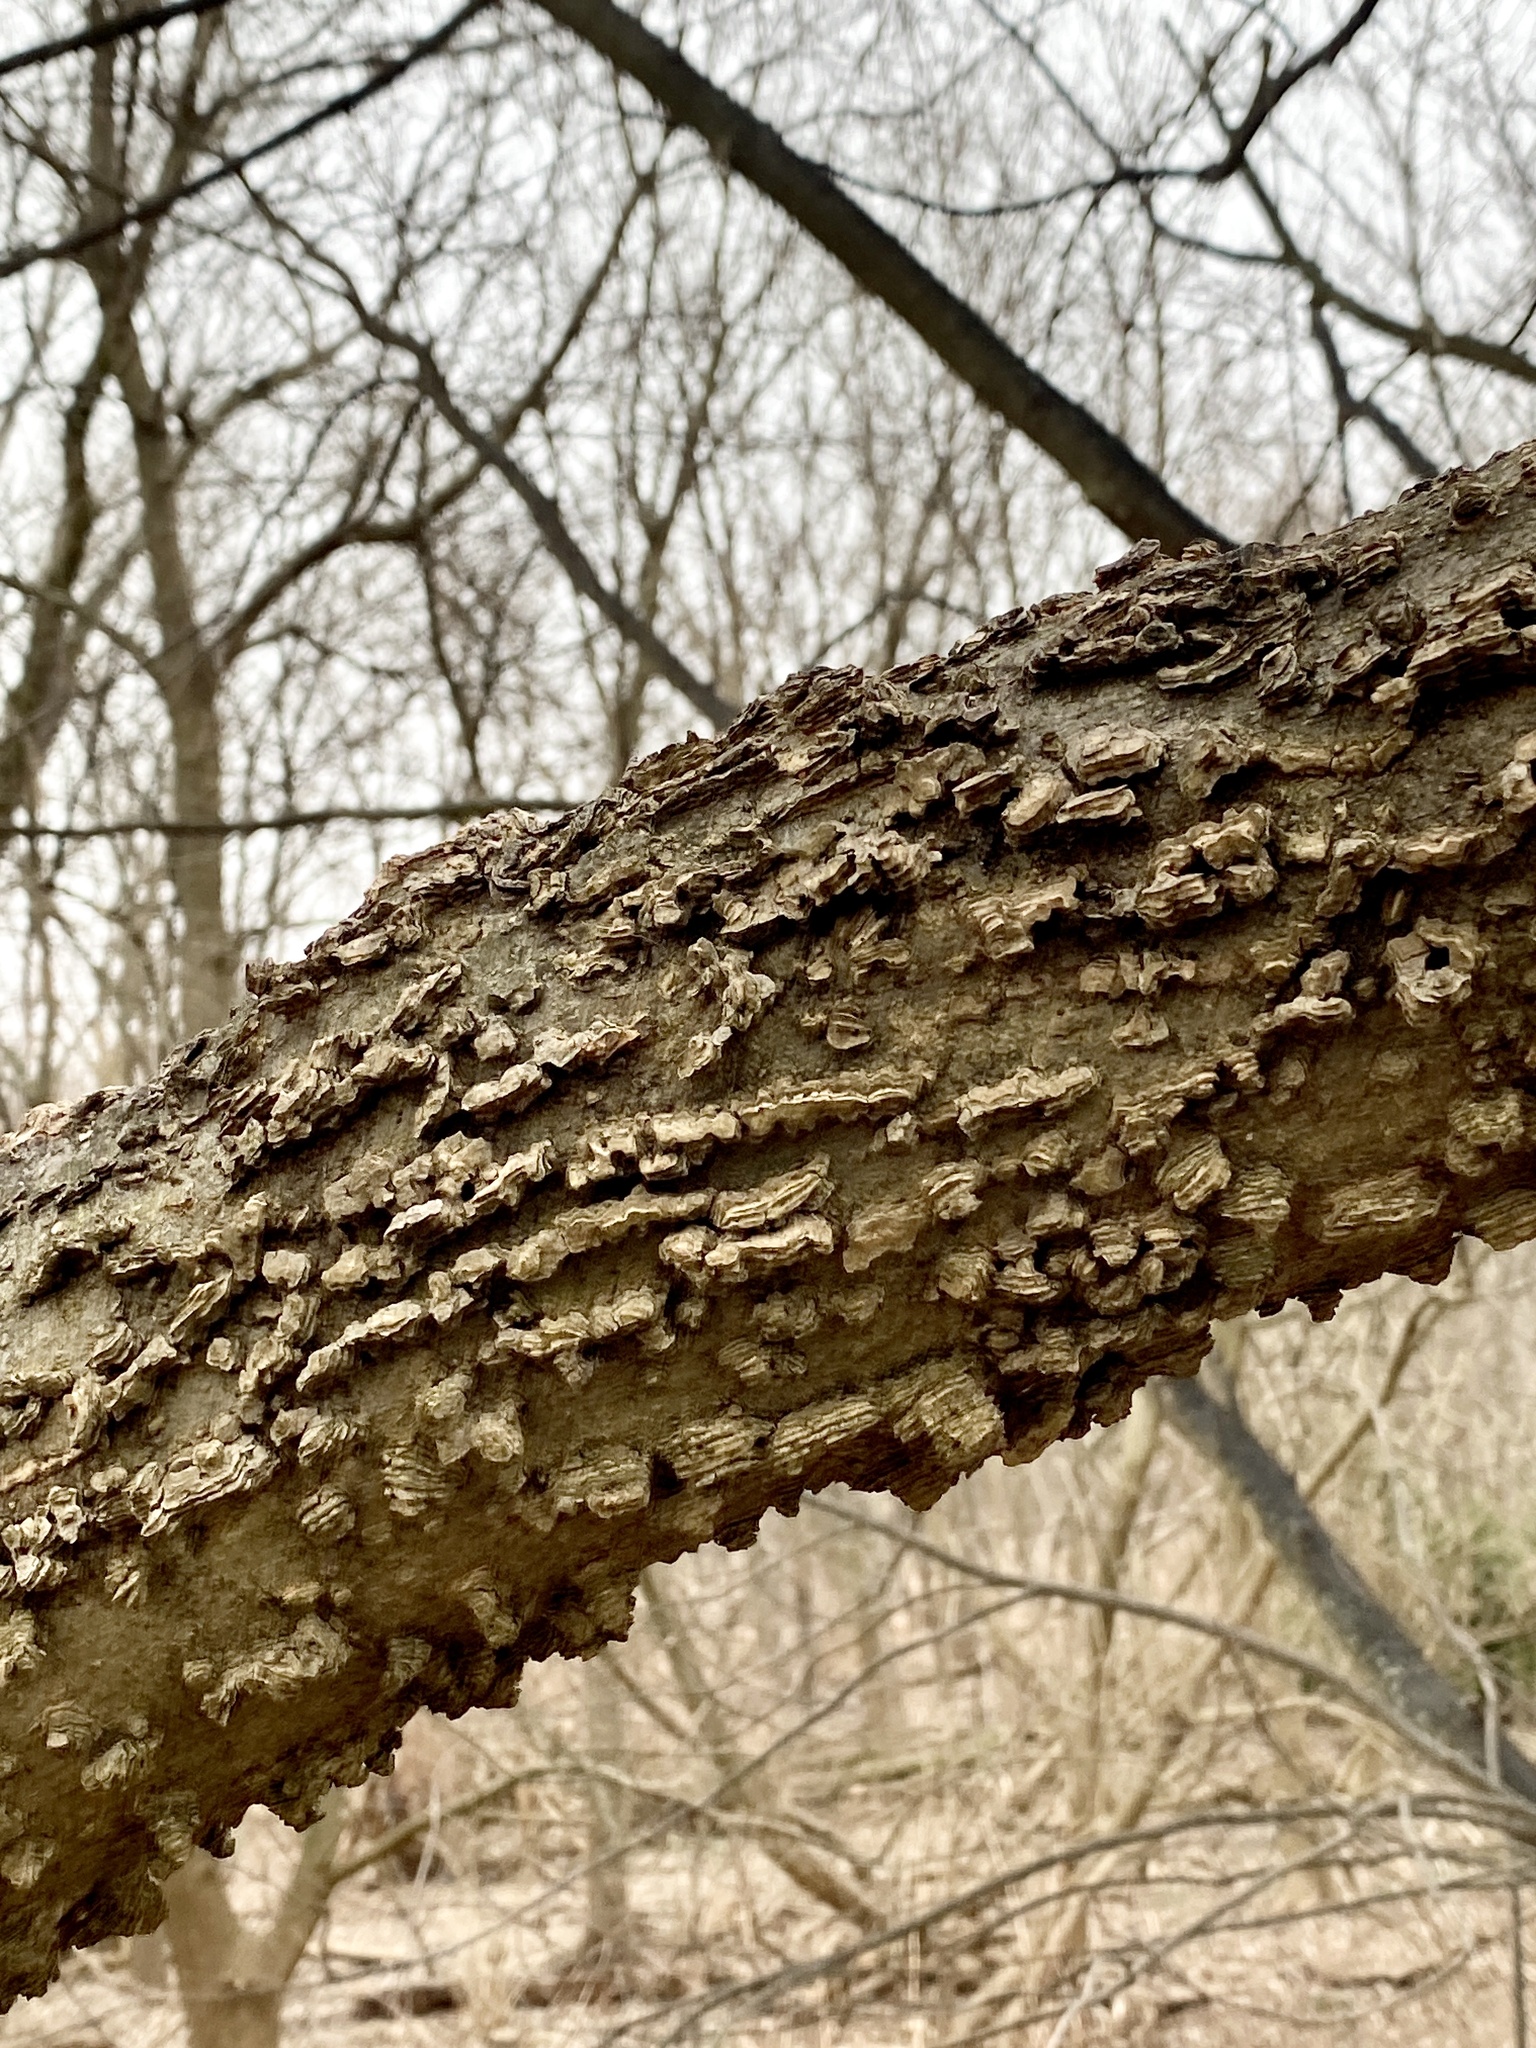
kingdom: Plantae
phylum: Tracheophyta
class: Magnoliopsida
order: Rosales
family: Cannabaceae
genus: Celtis
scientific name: Celtis occidentalis
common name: Common hackberry
